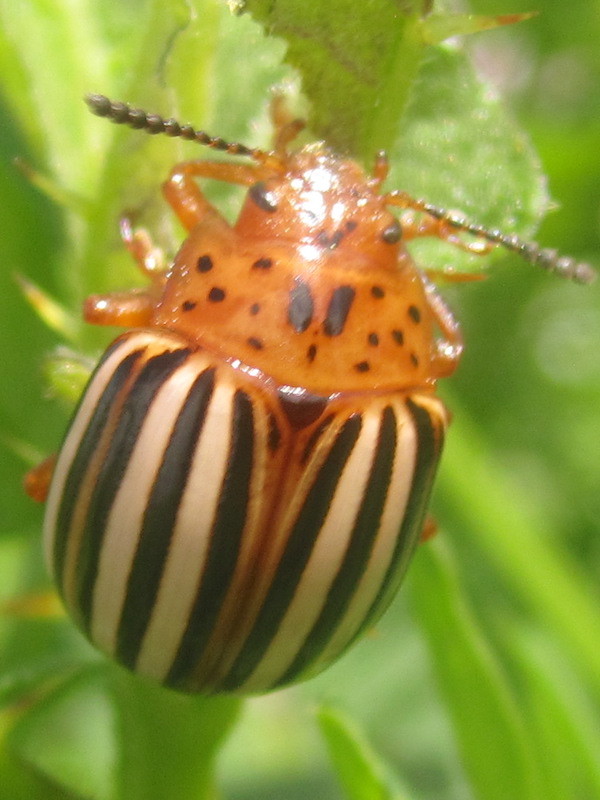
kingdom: Animalia
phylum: Arthropoda
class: Insecta
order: Coleoptera
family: Chrysomelidae
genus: Leptinotarsa
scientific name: Leptinotarsa juncta
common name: False potato beetle
